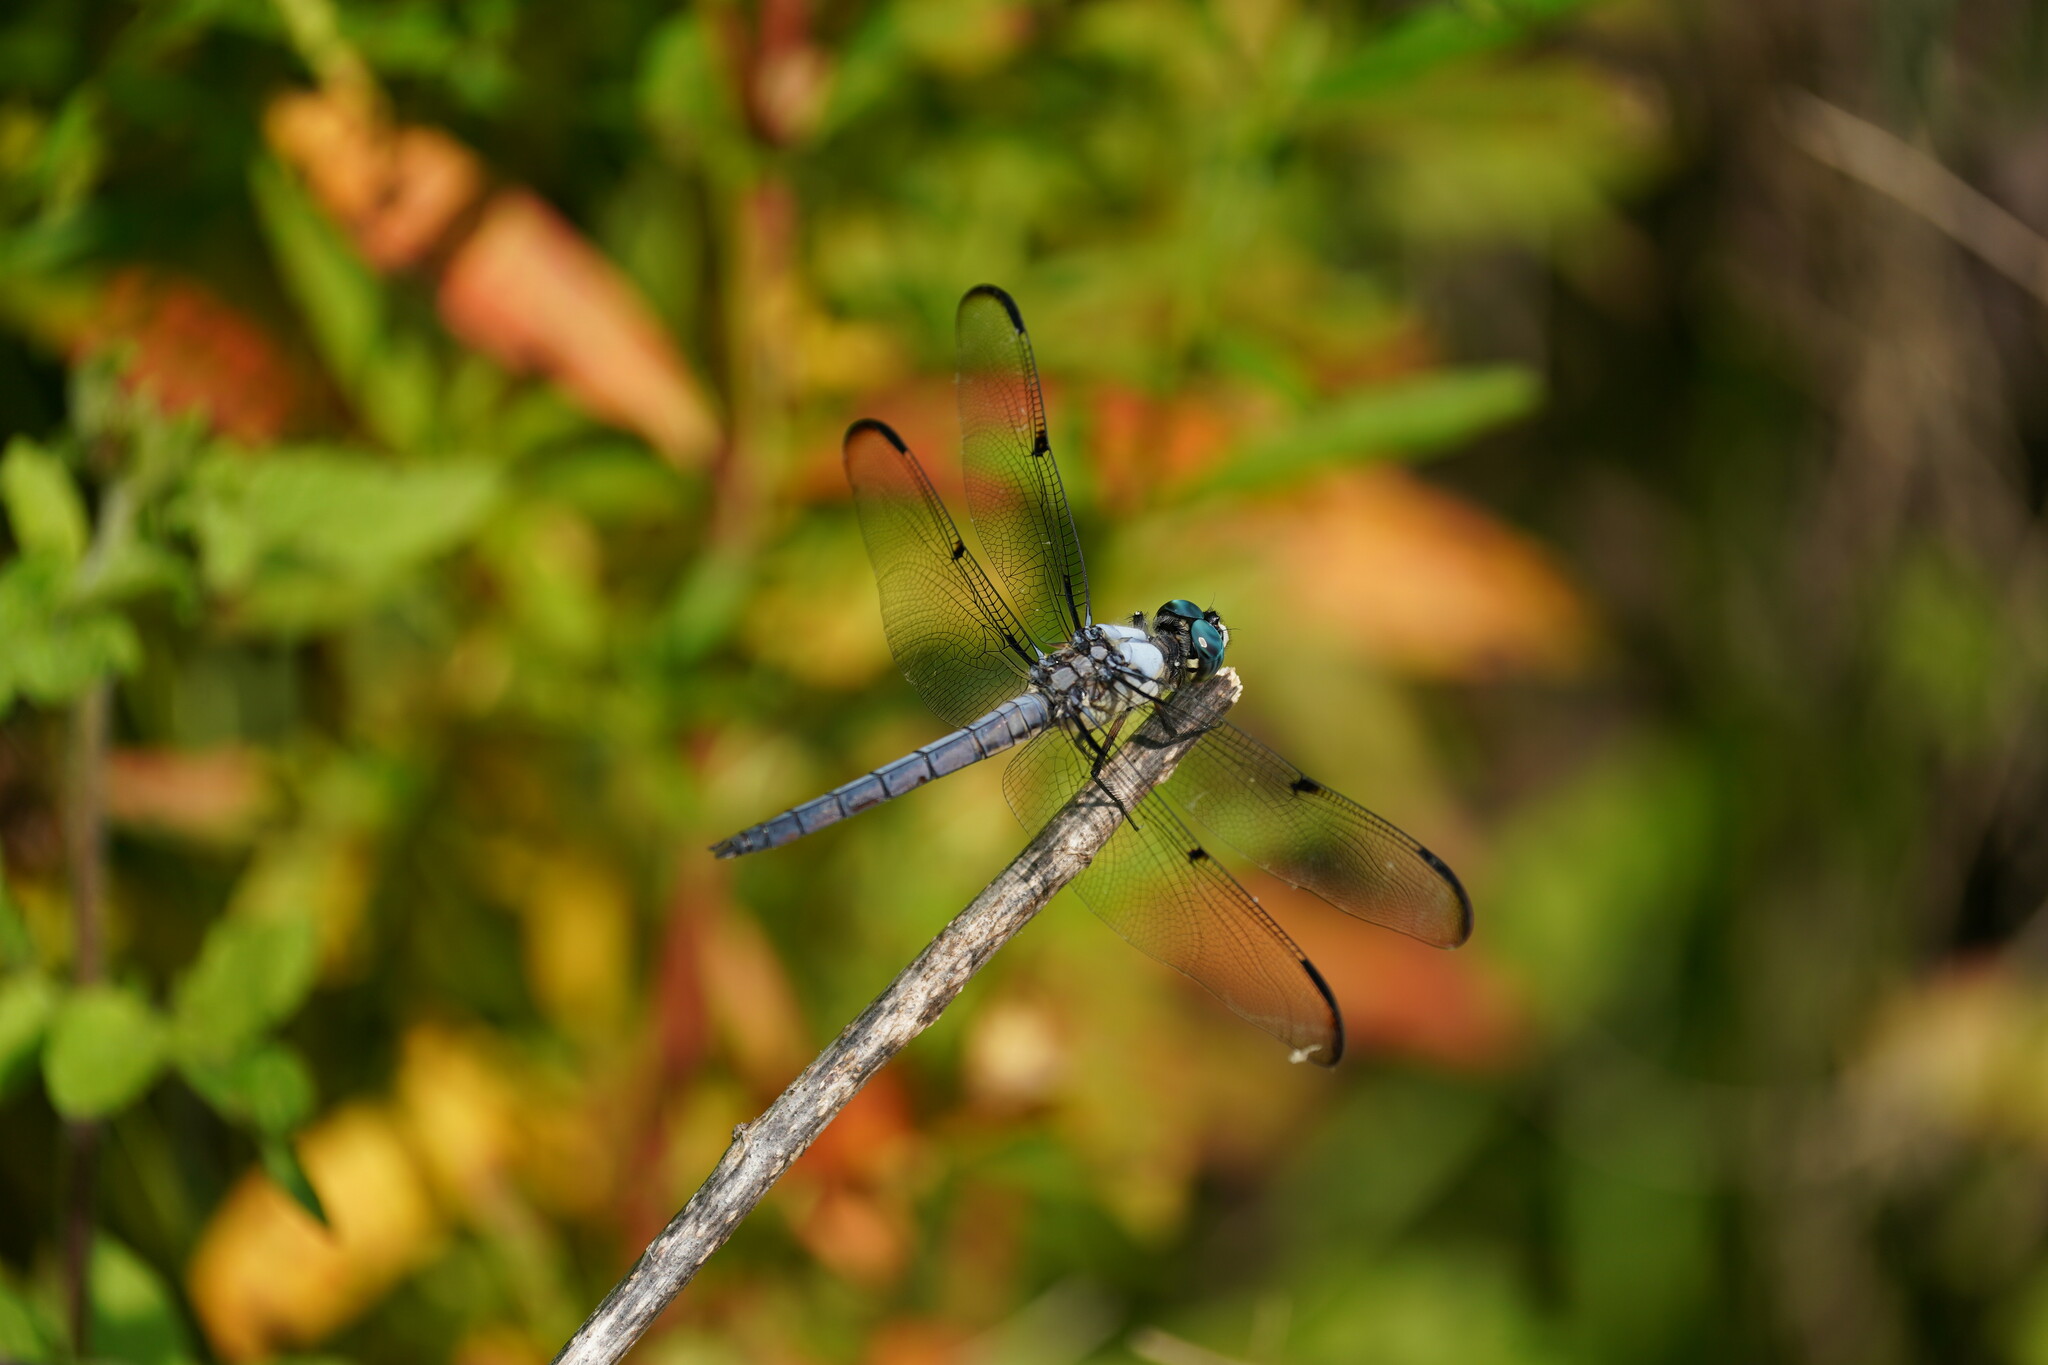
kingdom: Animalia
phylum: Arthropoda
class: Insecta
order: Odonata
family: Libellulidae
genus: Libellula
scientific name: Libellula vibrans
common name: Great blue skimmer
